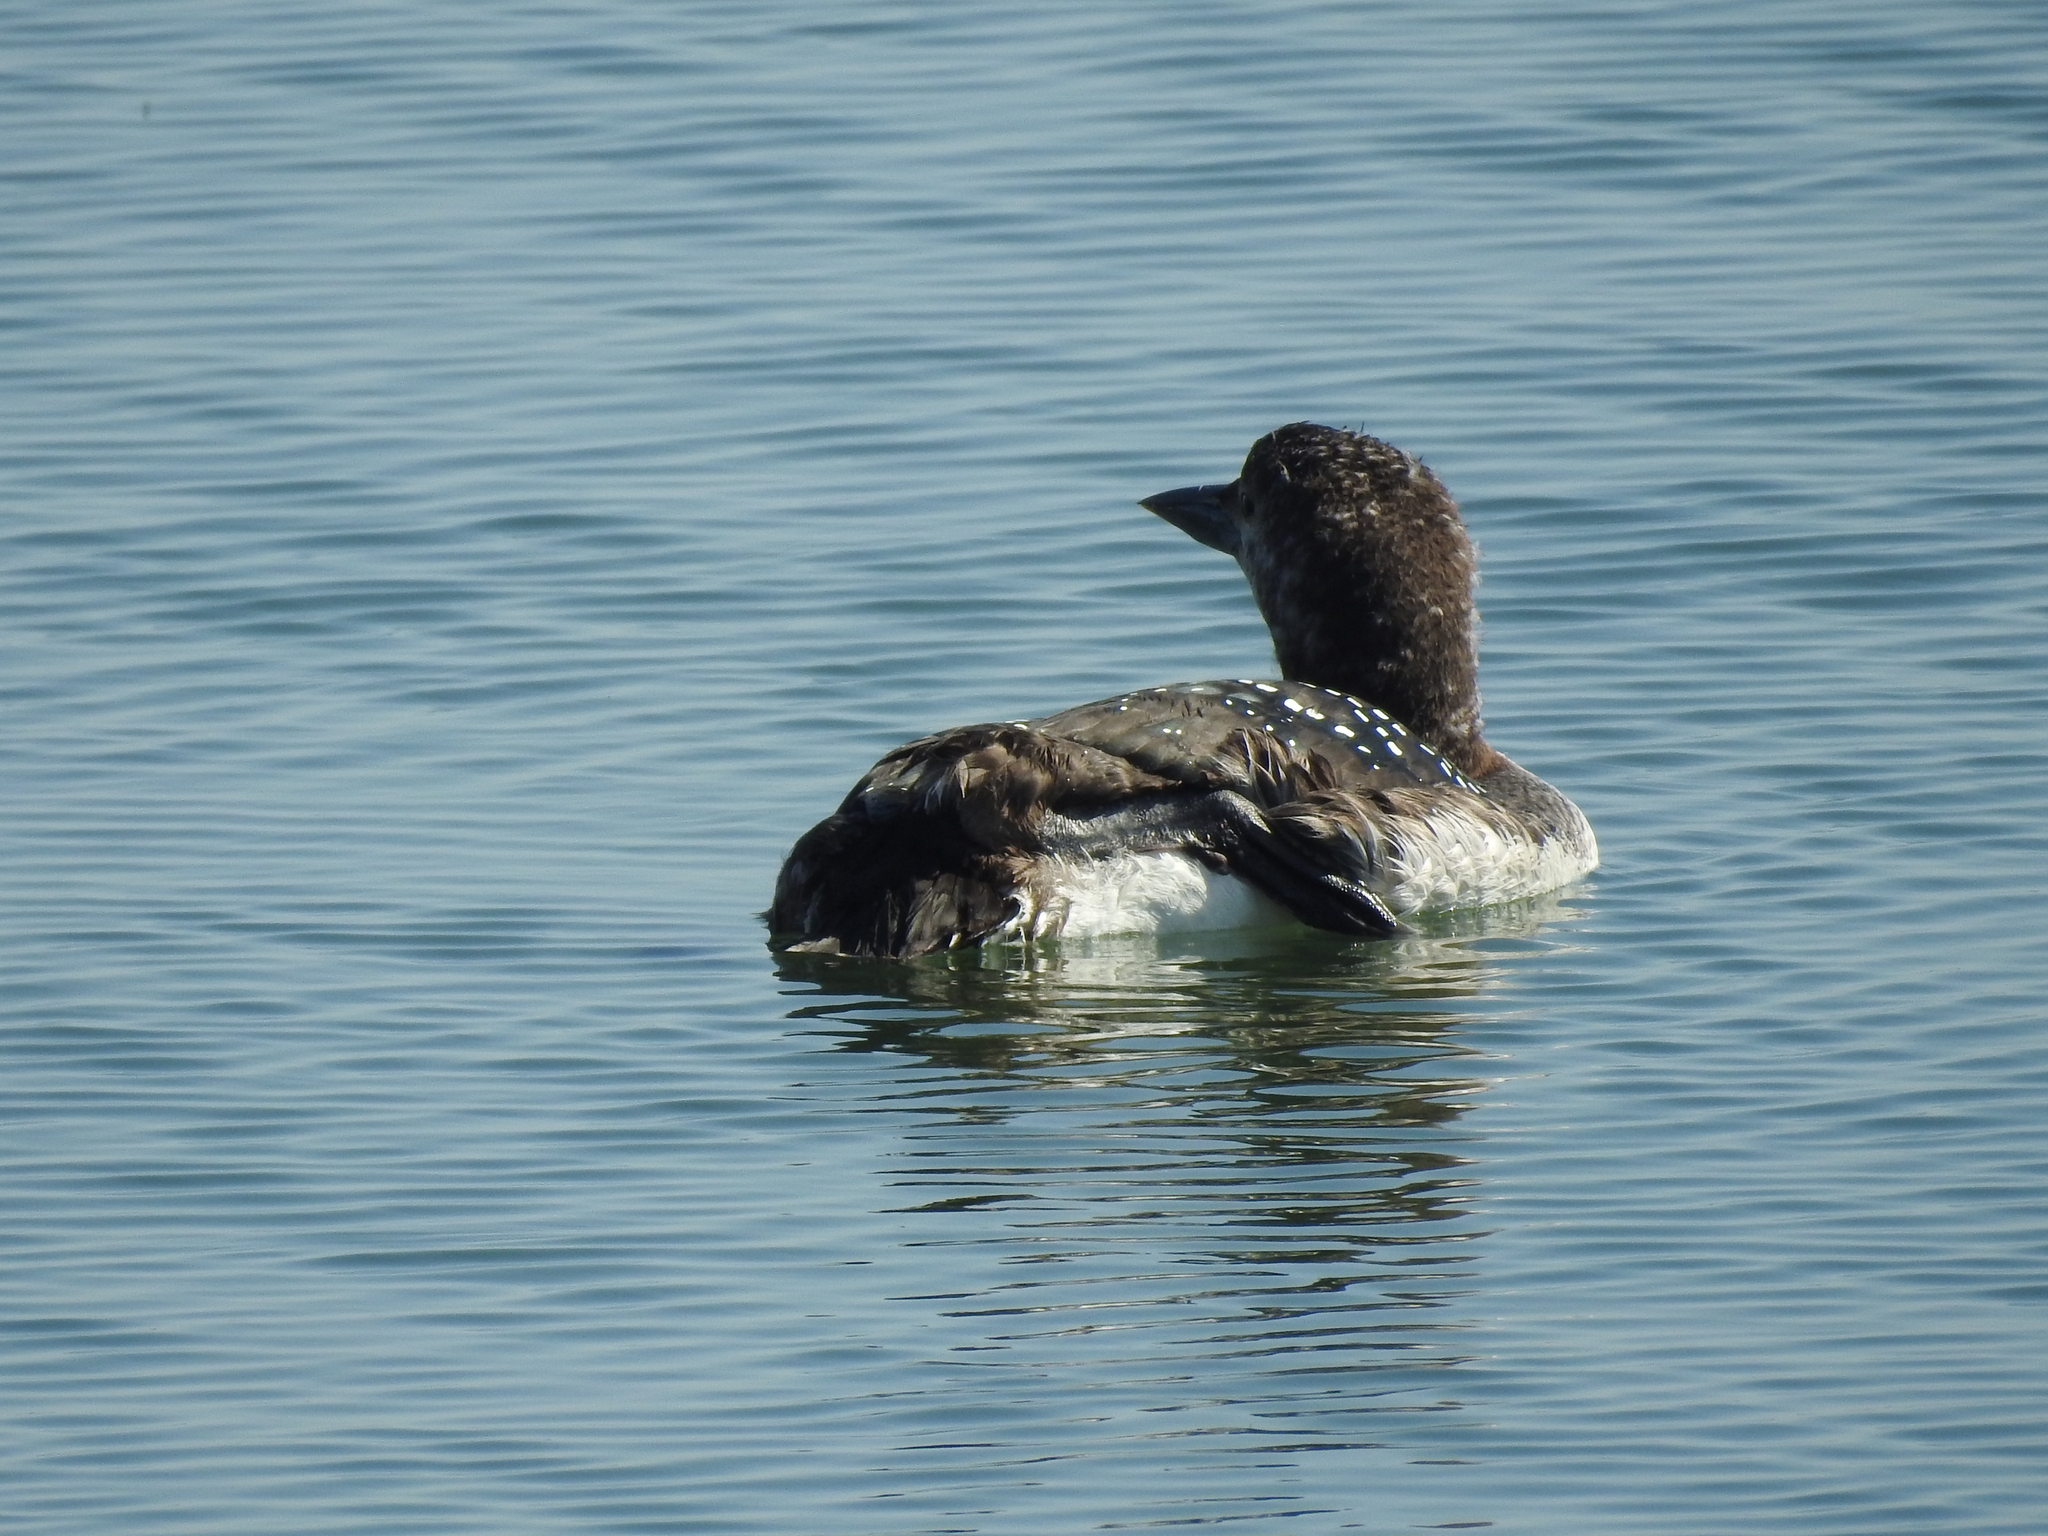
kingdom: Animalia
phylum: Chordata
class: Aves
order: Gaviiformes
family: Gaviidae
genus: Gavia
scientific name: Gavia immer
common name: Common loon
